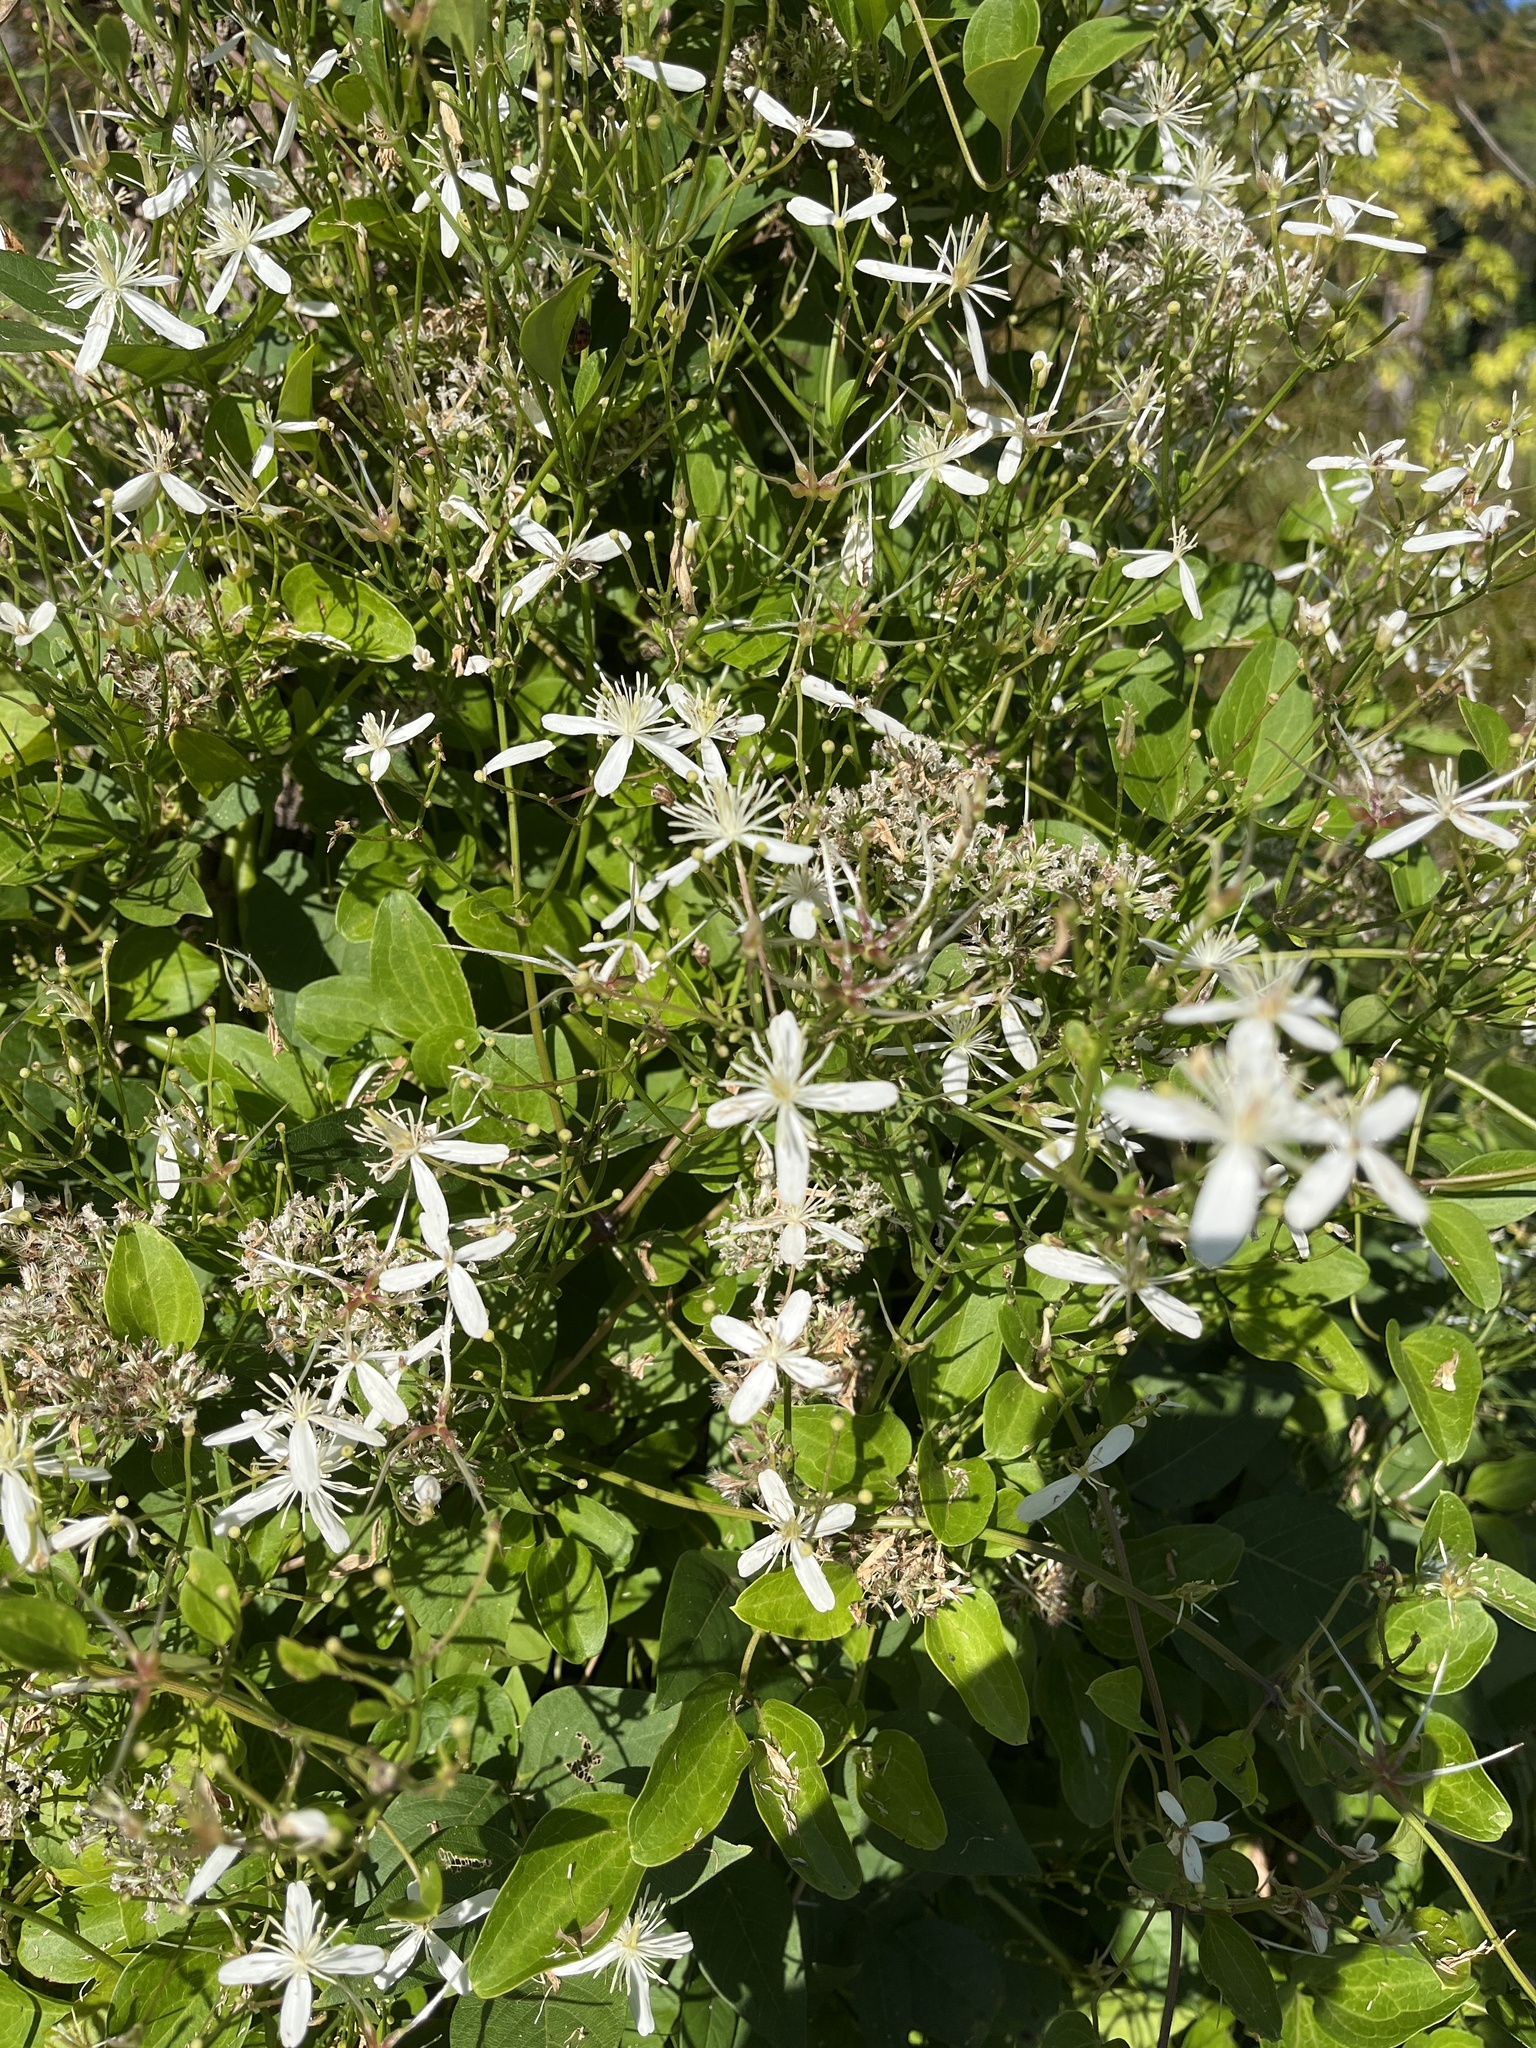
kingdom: Plantae
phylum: Tracheophyta
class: Magnoliopsida
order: Ranunculales
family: Ranunculaceae
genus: Clematis
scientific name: Clematis terniflora
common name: Sweet autumn clematis
